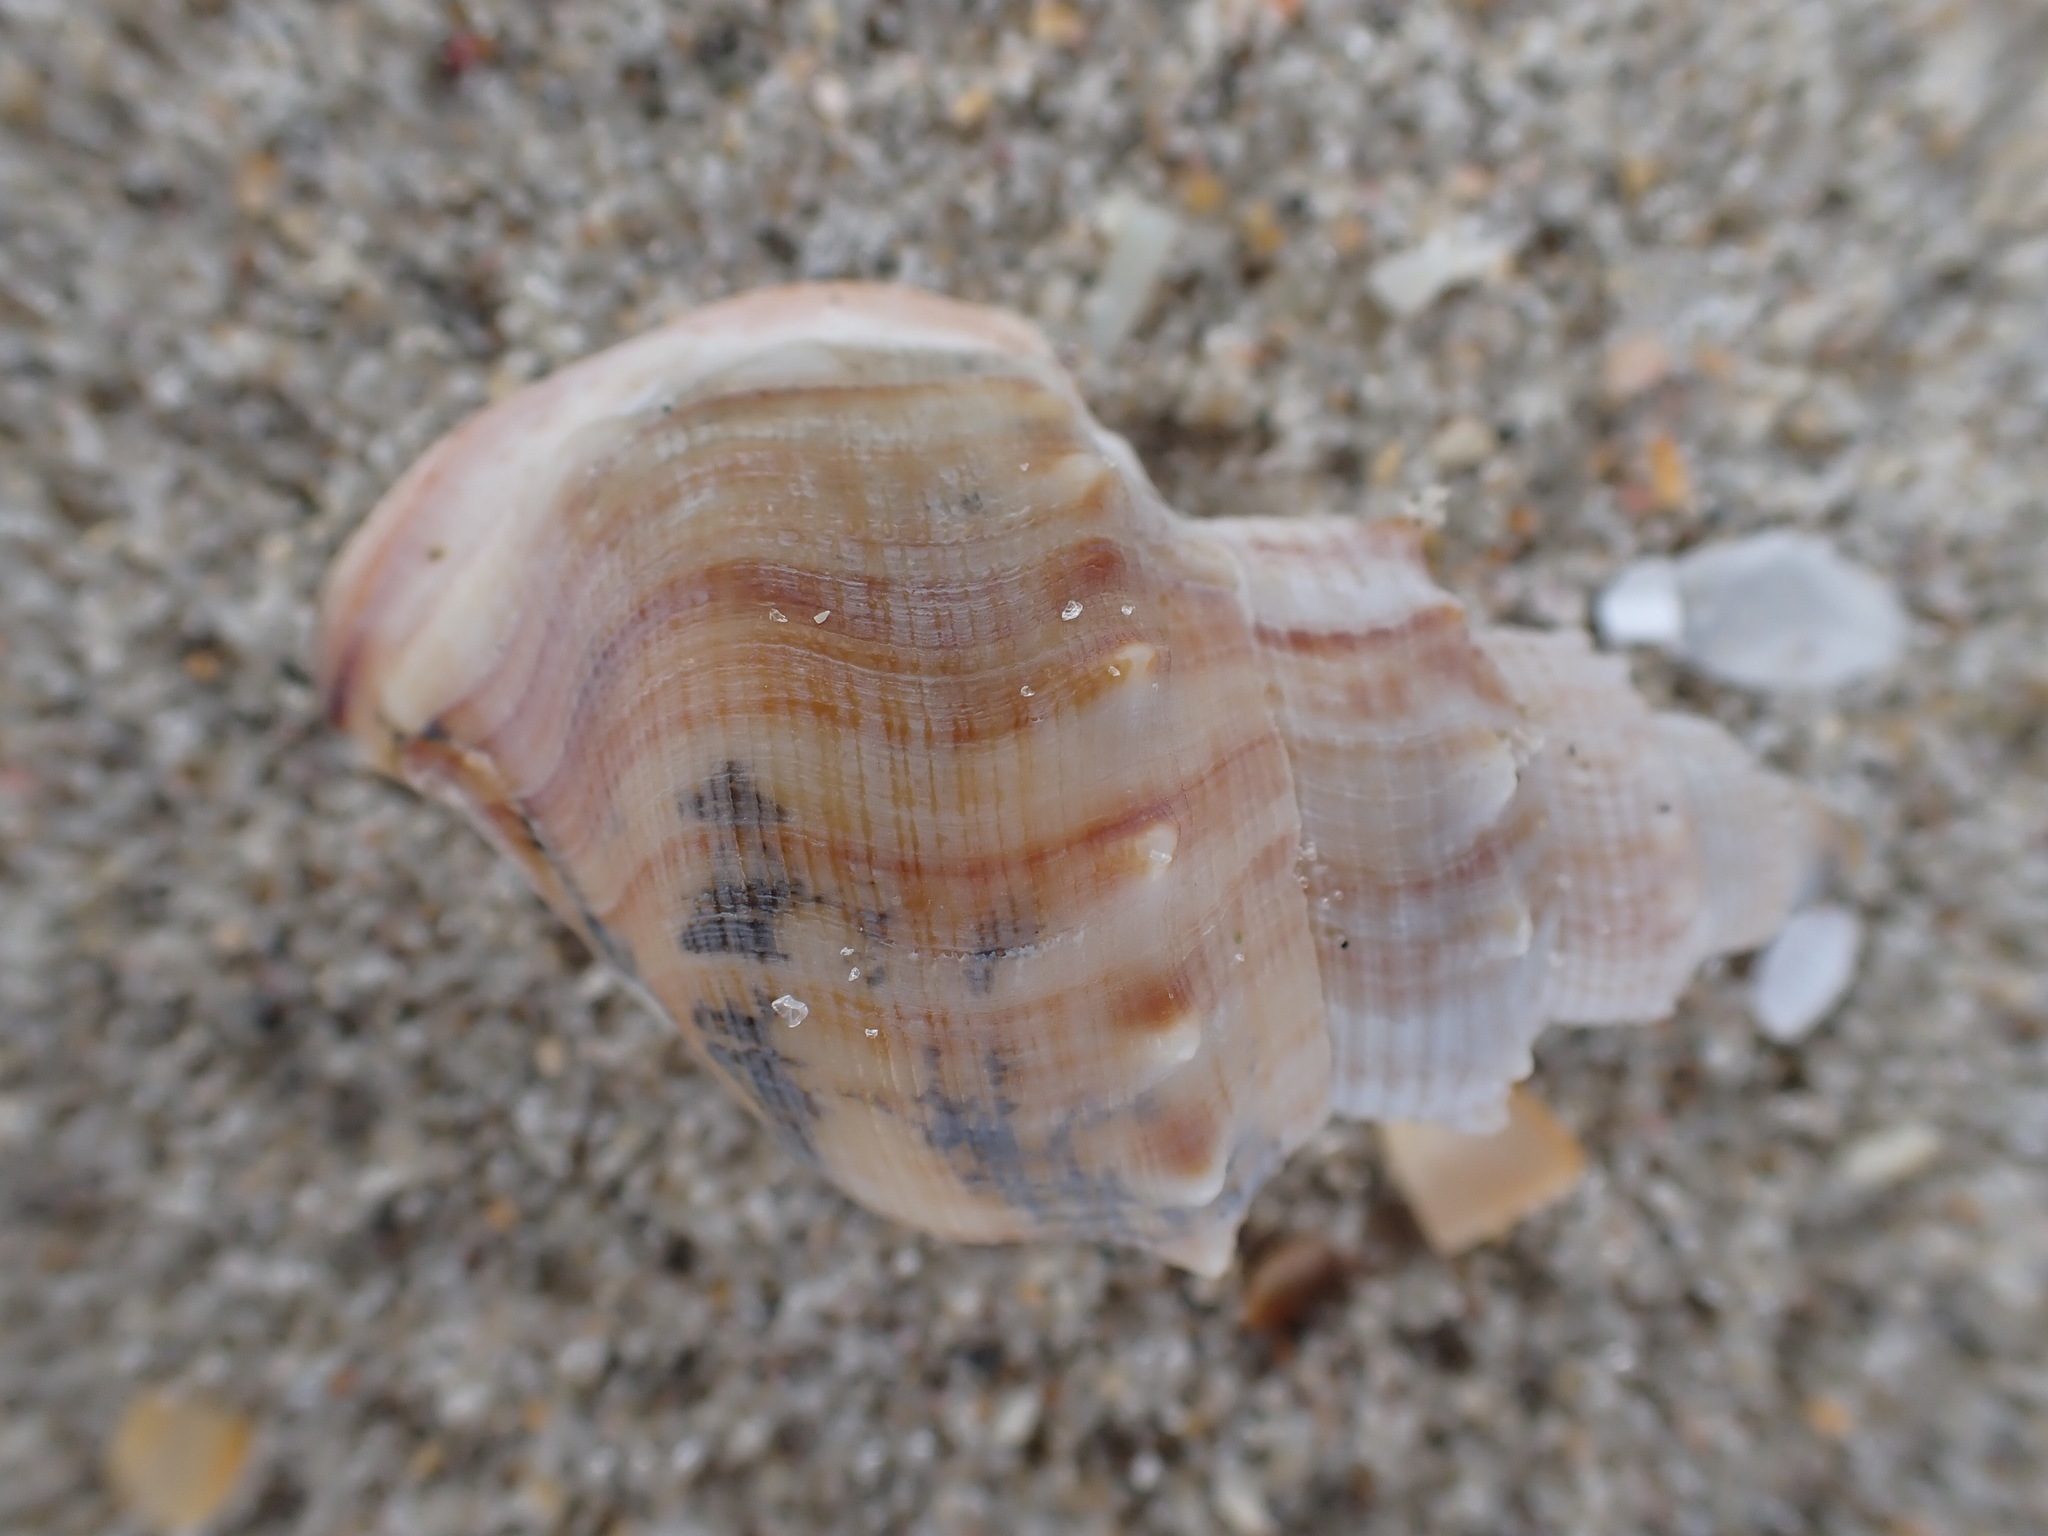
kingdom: Animalia
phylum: Mollusca
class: Gastropoda
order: Littorinimorpha
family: Struthiolariidae
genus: Struthiolaria
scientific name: Struthiolaria papulosa
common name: Large ostrich foot
